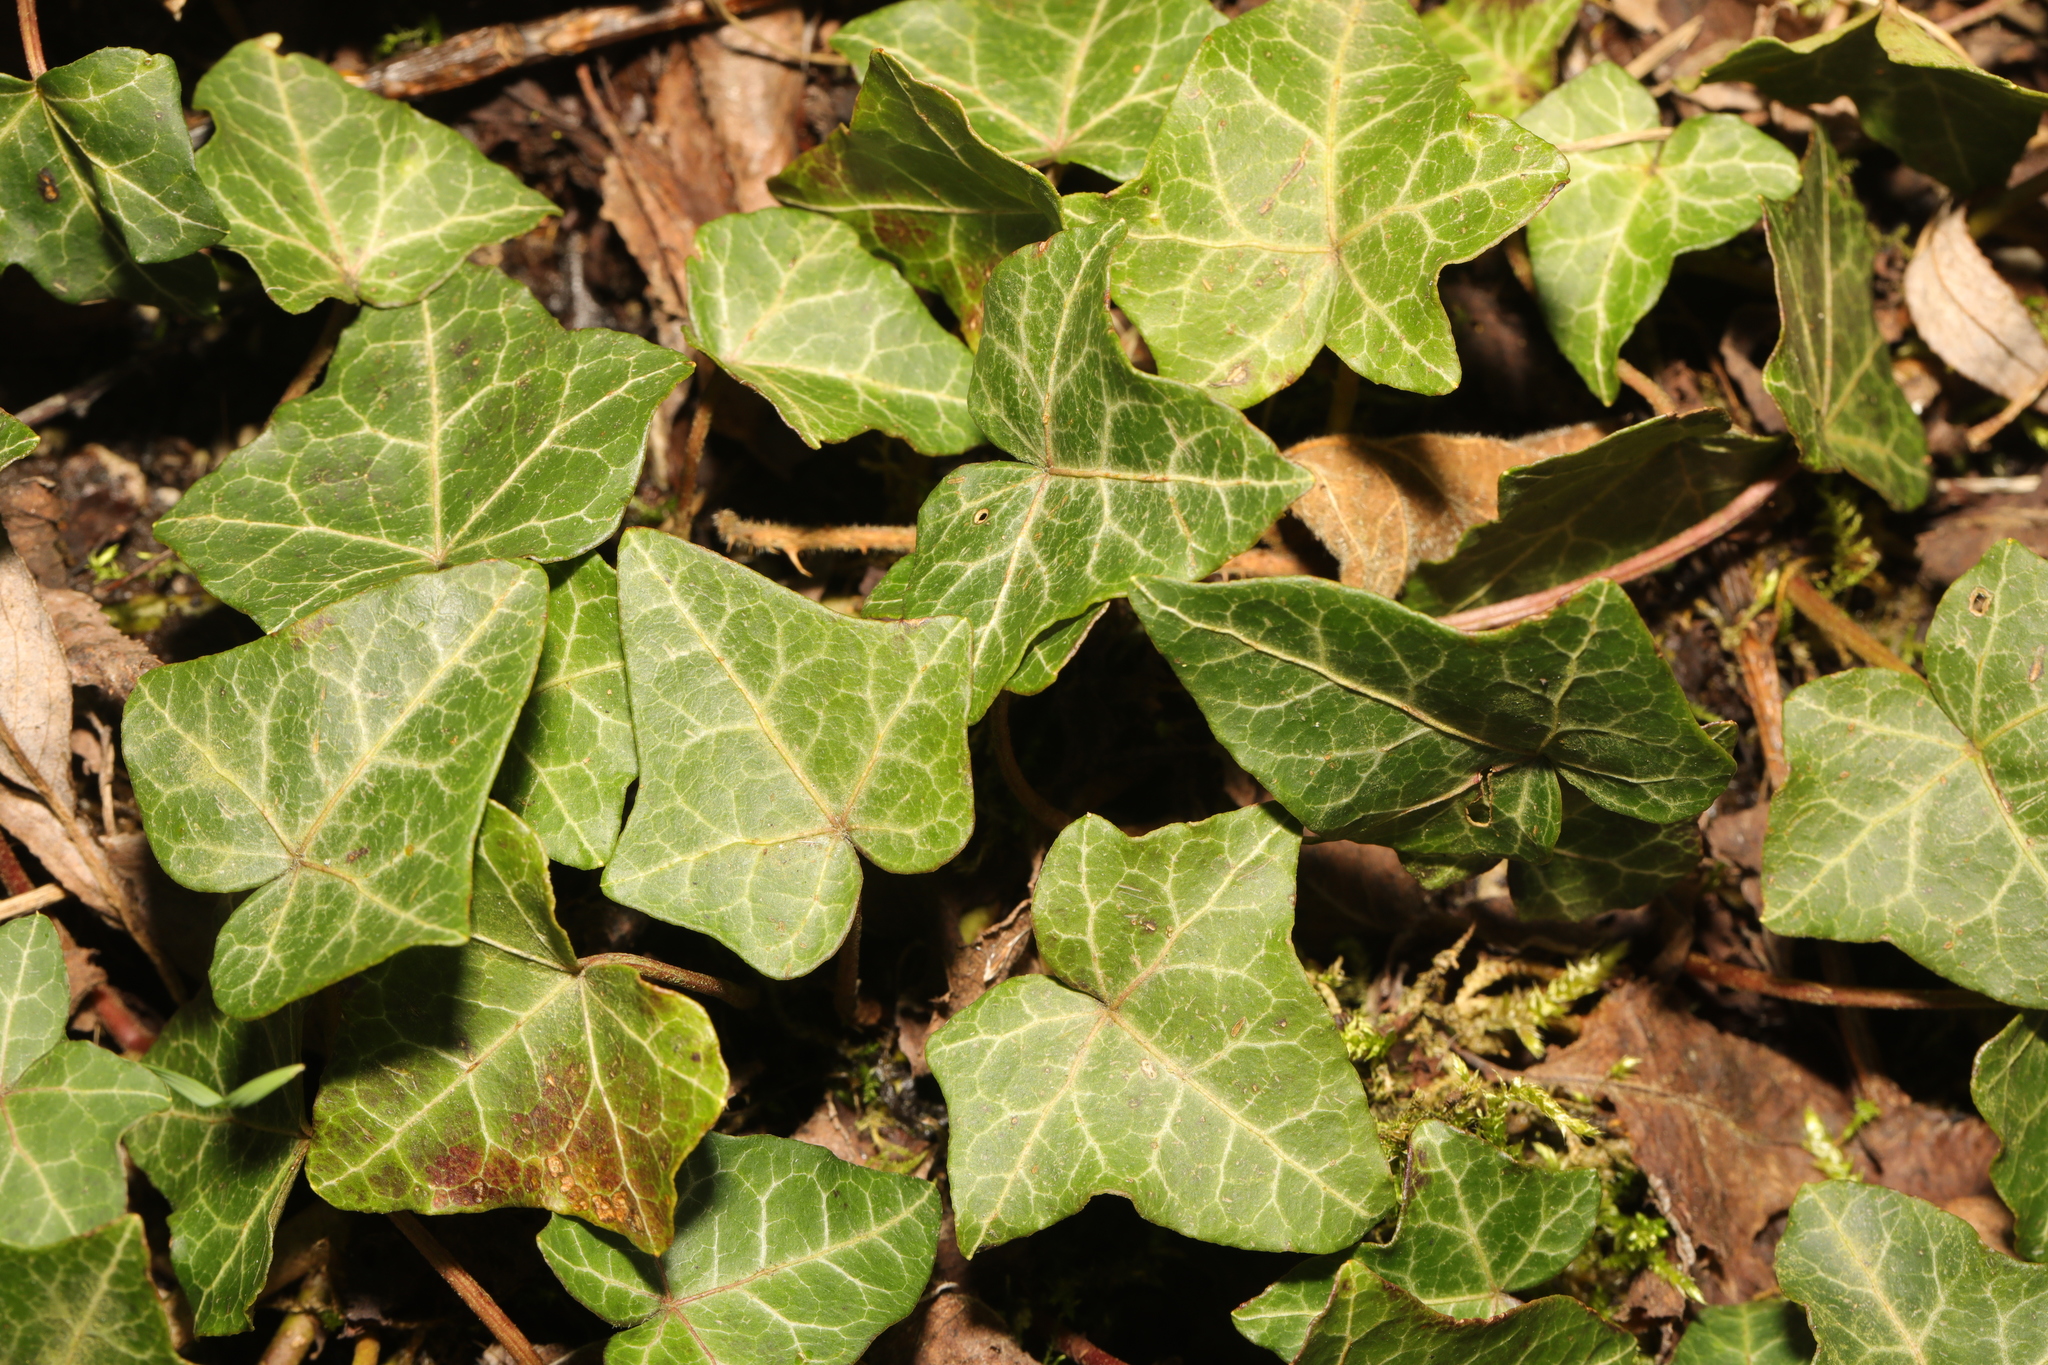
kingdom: Plantae
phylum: Tracheophyta
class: Magnoliopsida
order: Apiales
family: Araliaceae
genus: Hedera
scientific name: Hedera helix
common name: Ivy
